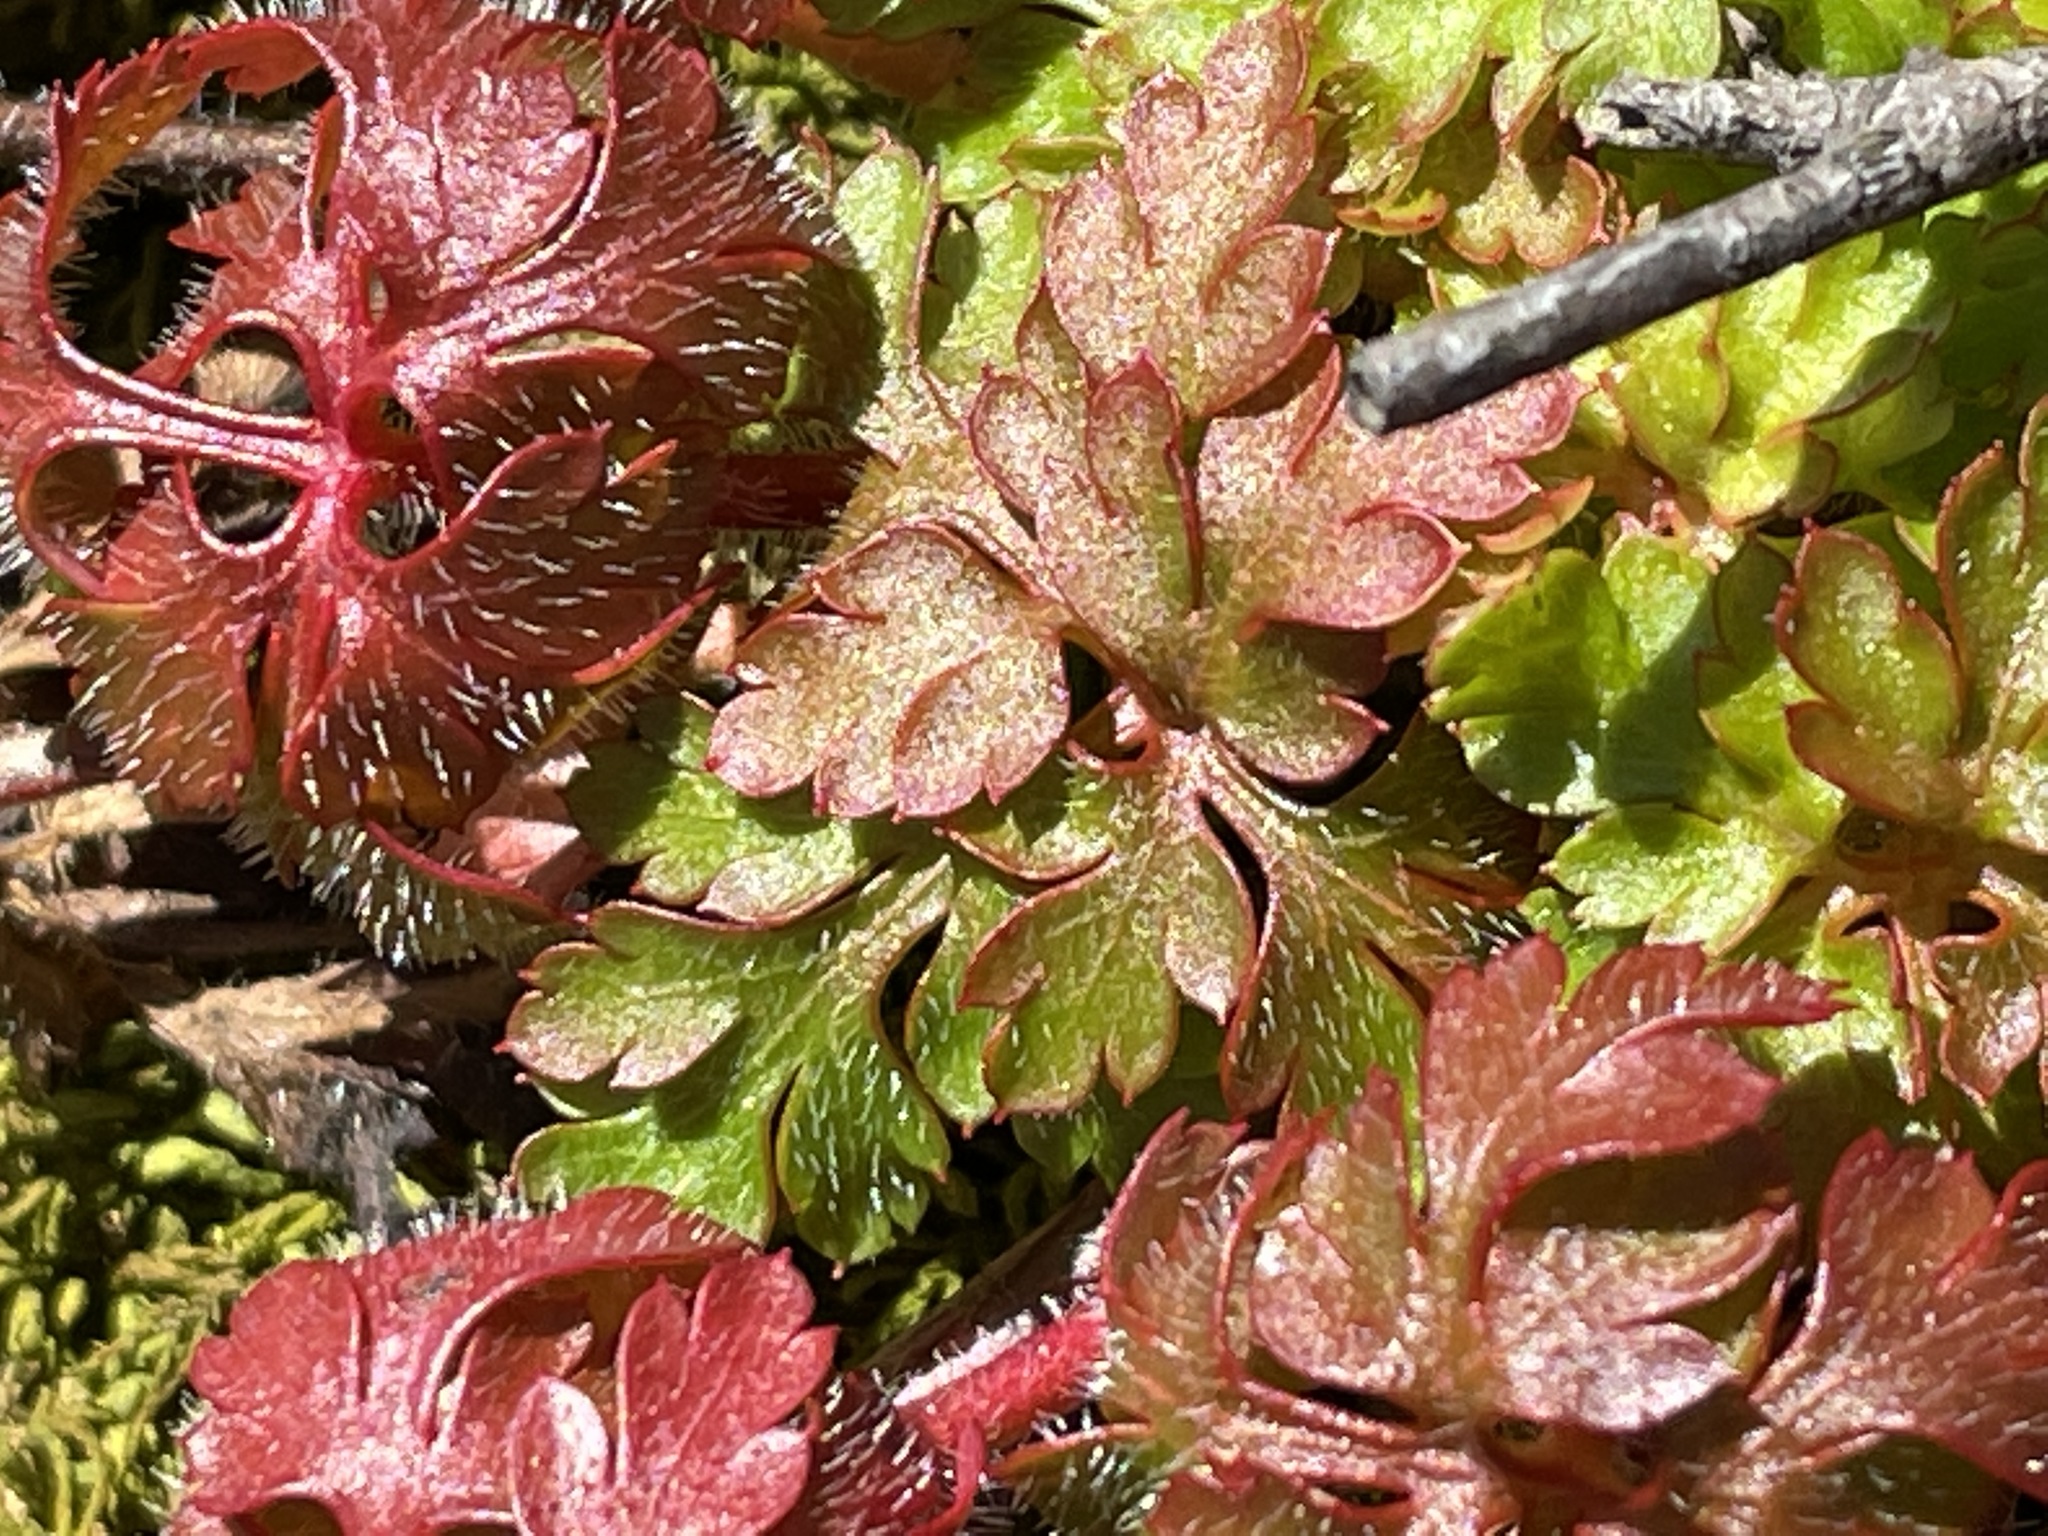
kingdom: Plantae
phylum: Tracheophyta
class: Magnoliopsida
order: Geraniales
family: Geraniaceae
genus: Geranium
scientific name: Geranium robertianum
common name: Herb-robert
